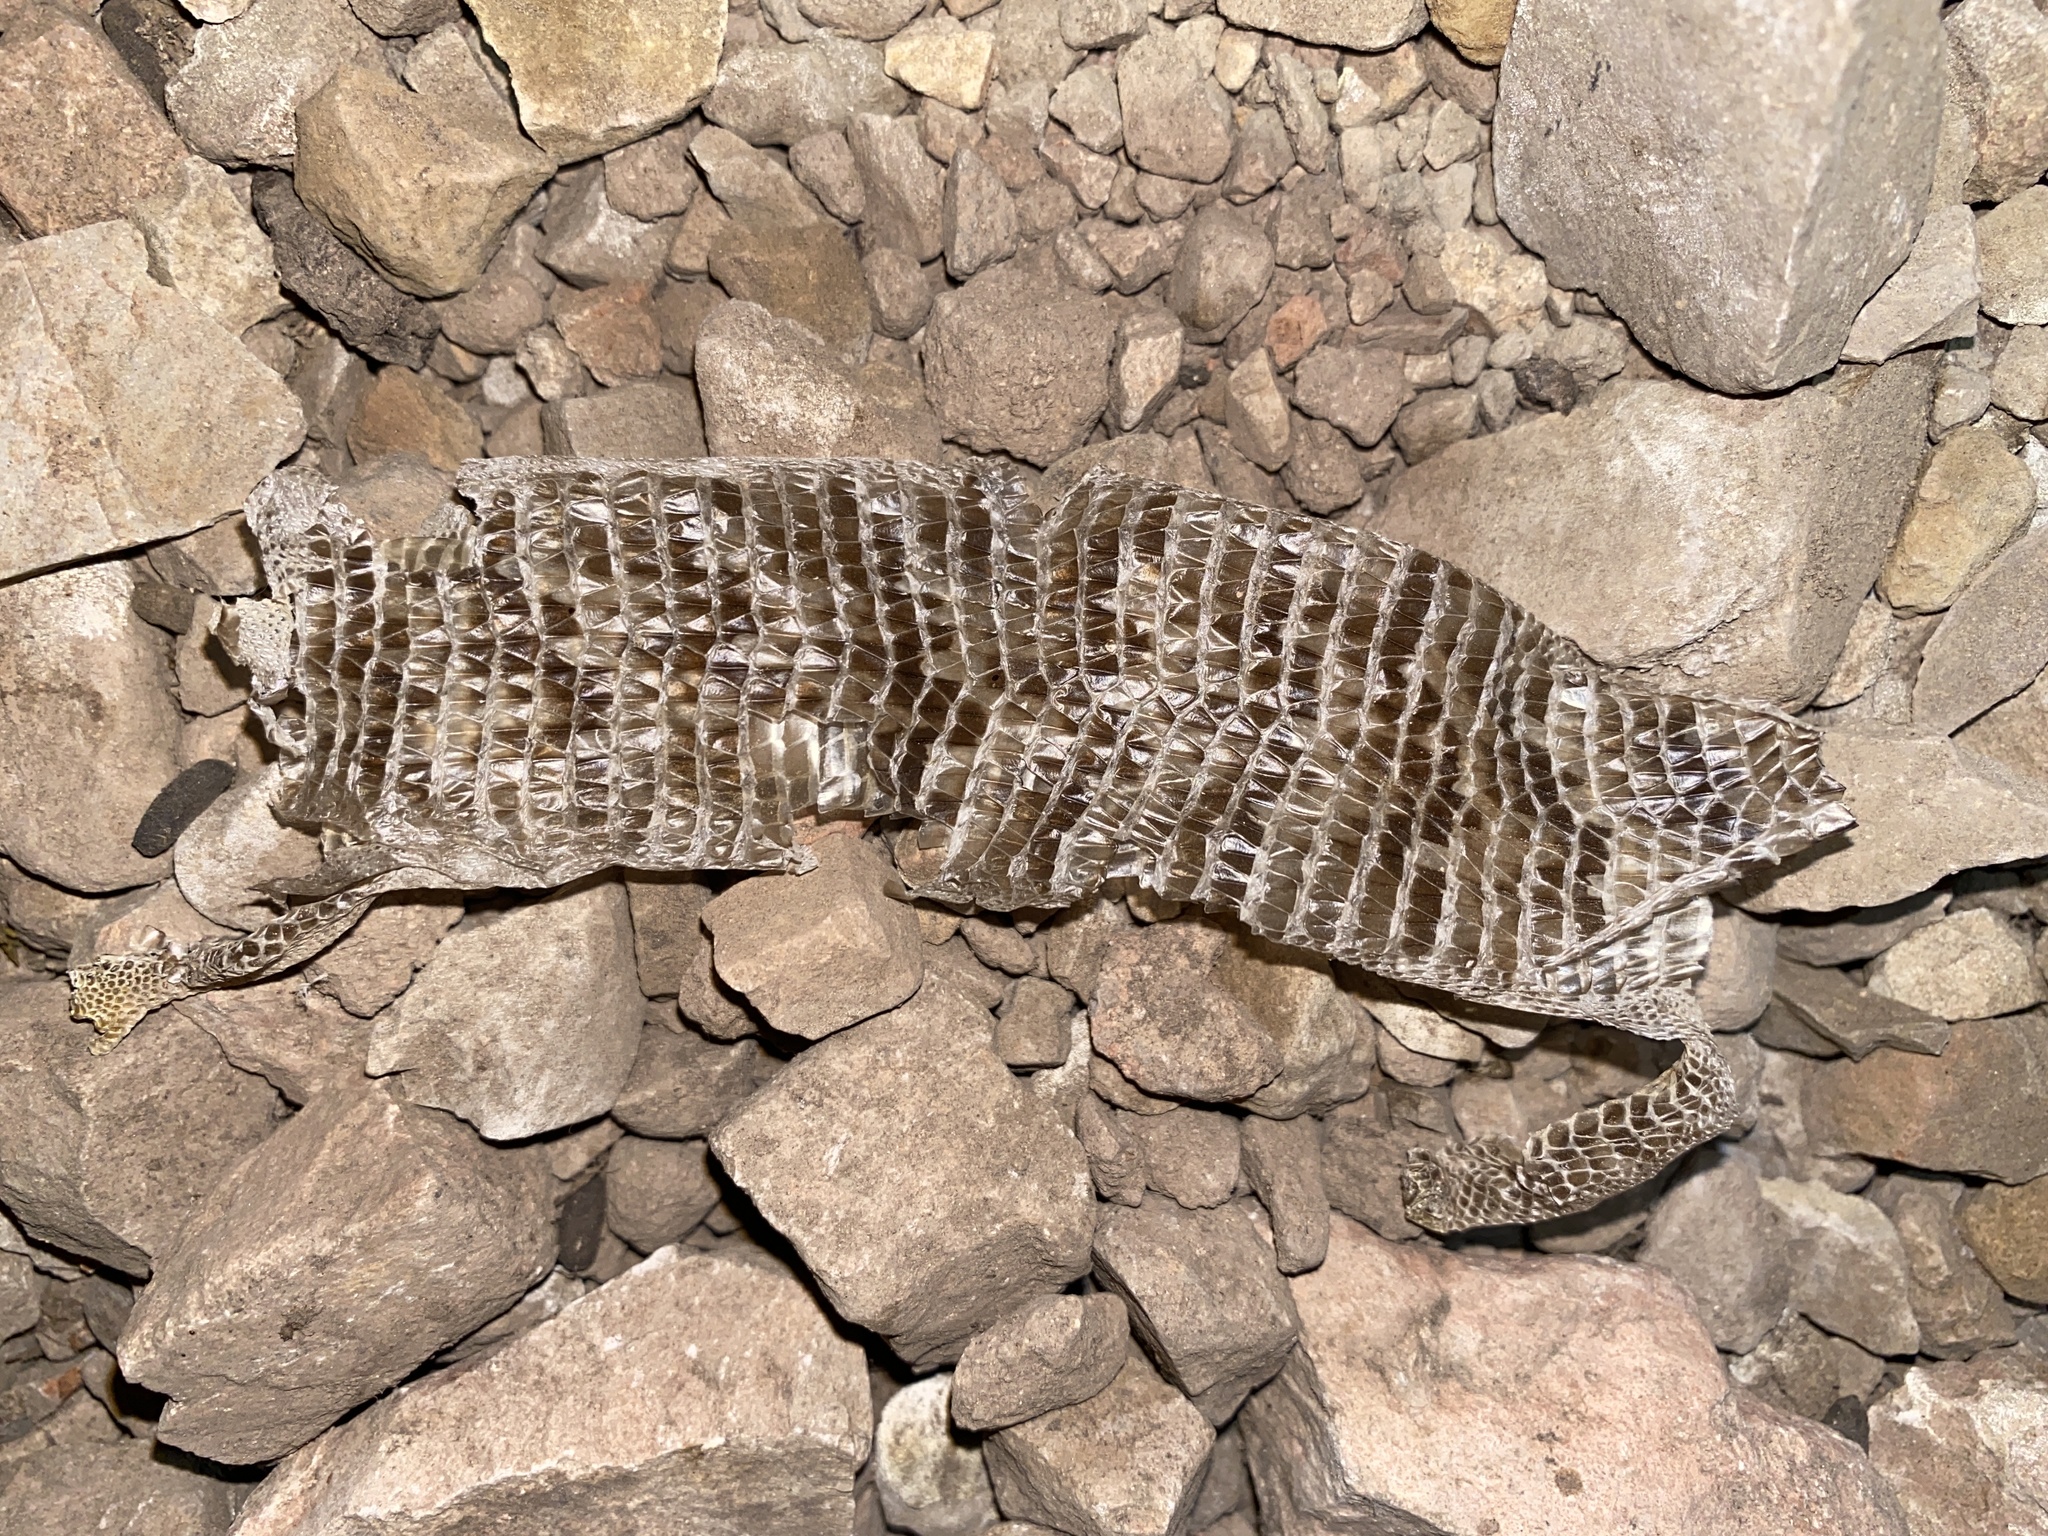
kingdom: Animalia
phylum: Chordata
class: Squamata
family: Anguidae
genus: Elgaria
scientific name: Elgaria multicarinata
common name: Southern alligator lizard
